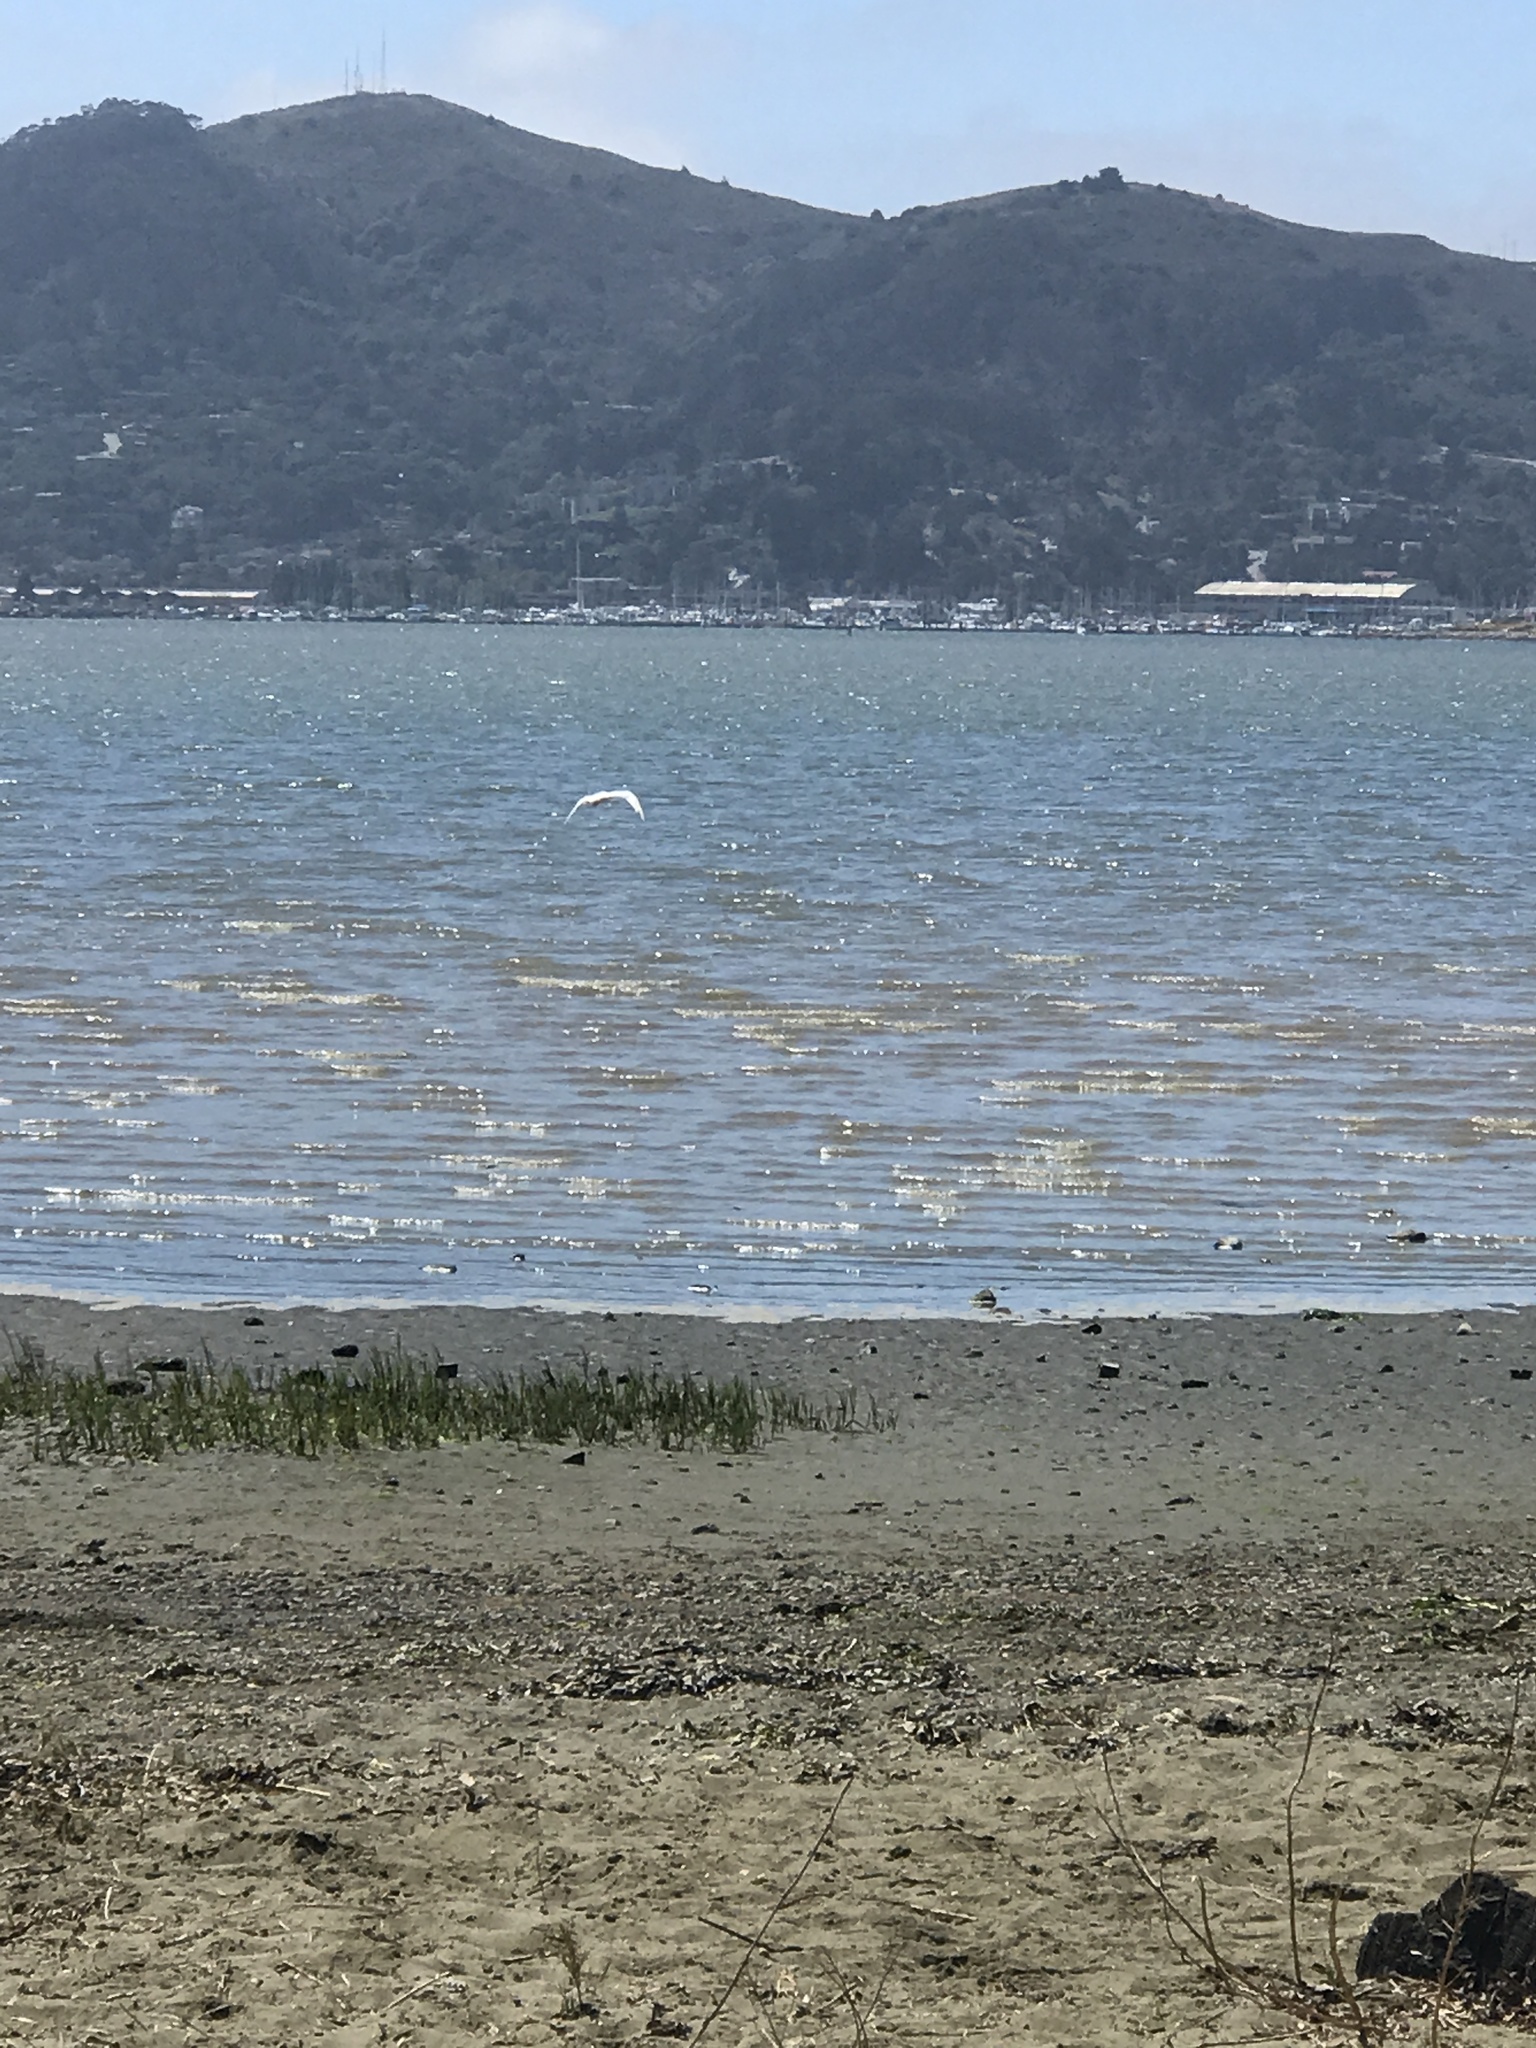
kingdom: Animalia
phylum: Chordata
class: Aves
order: Charadriiformes
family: Laridae
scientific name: Laridae
